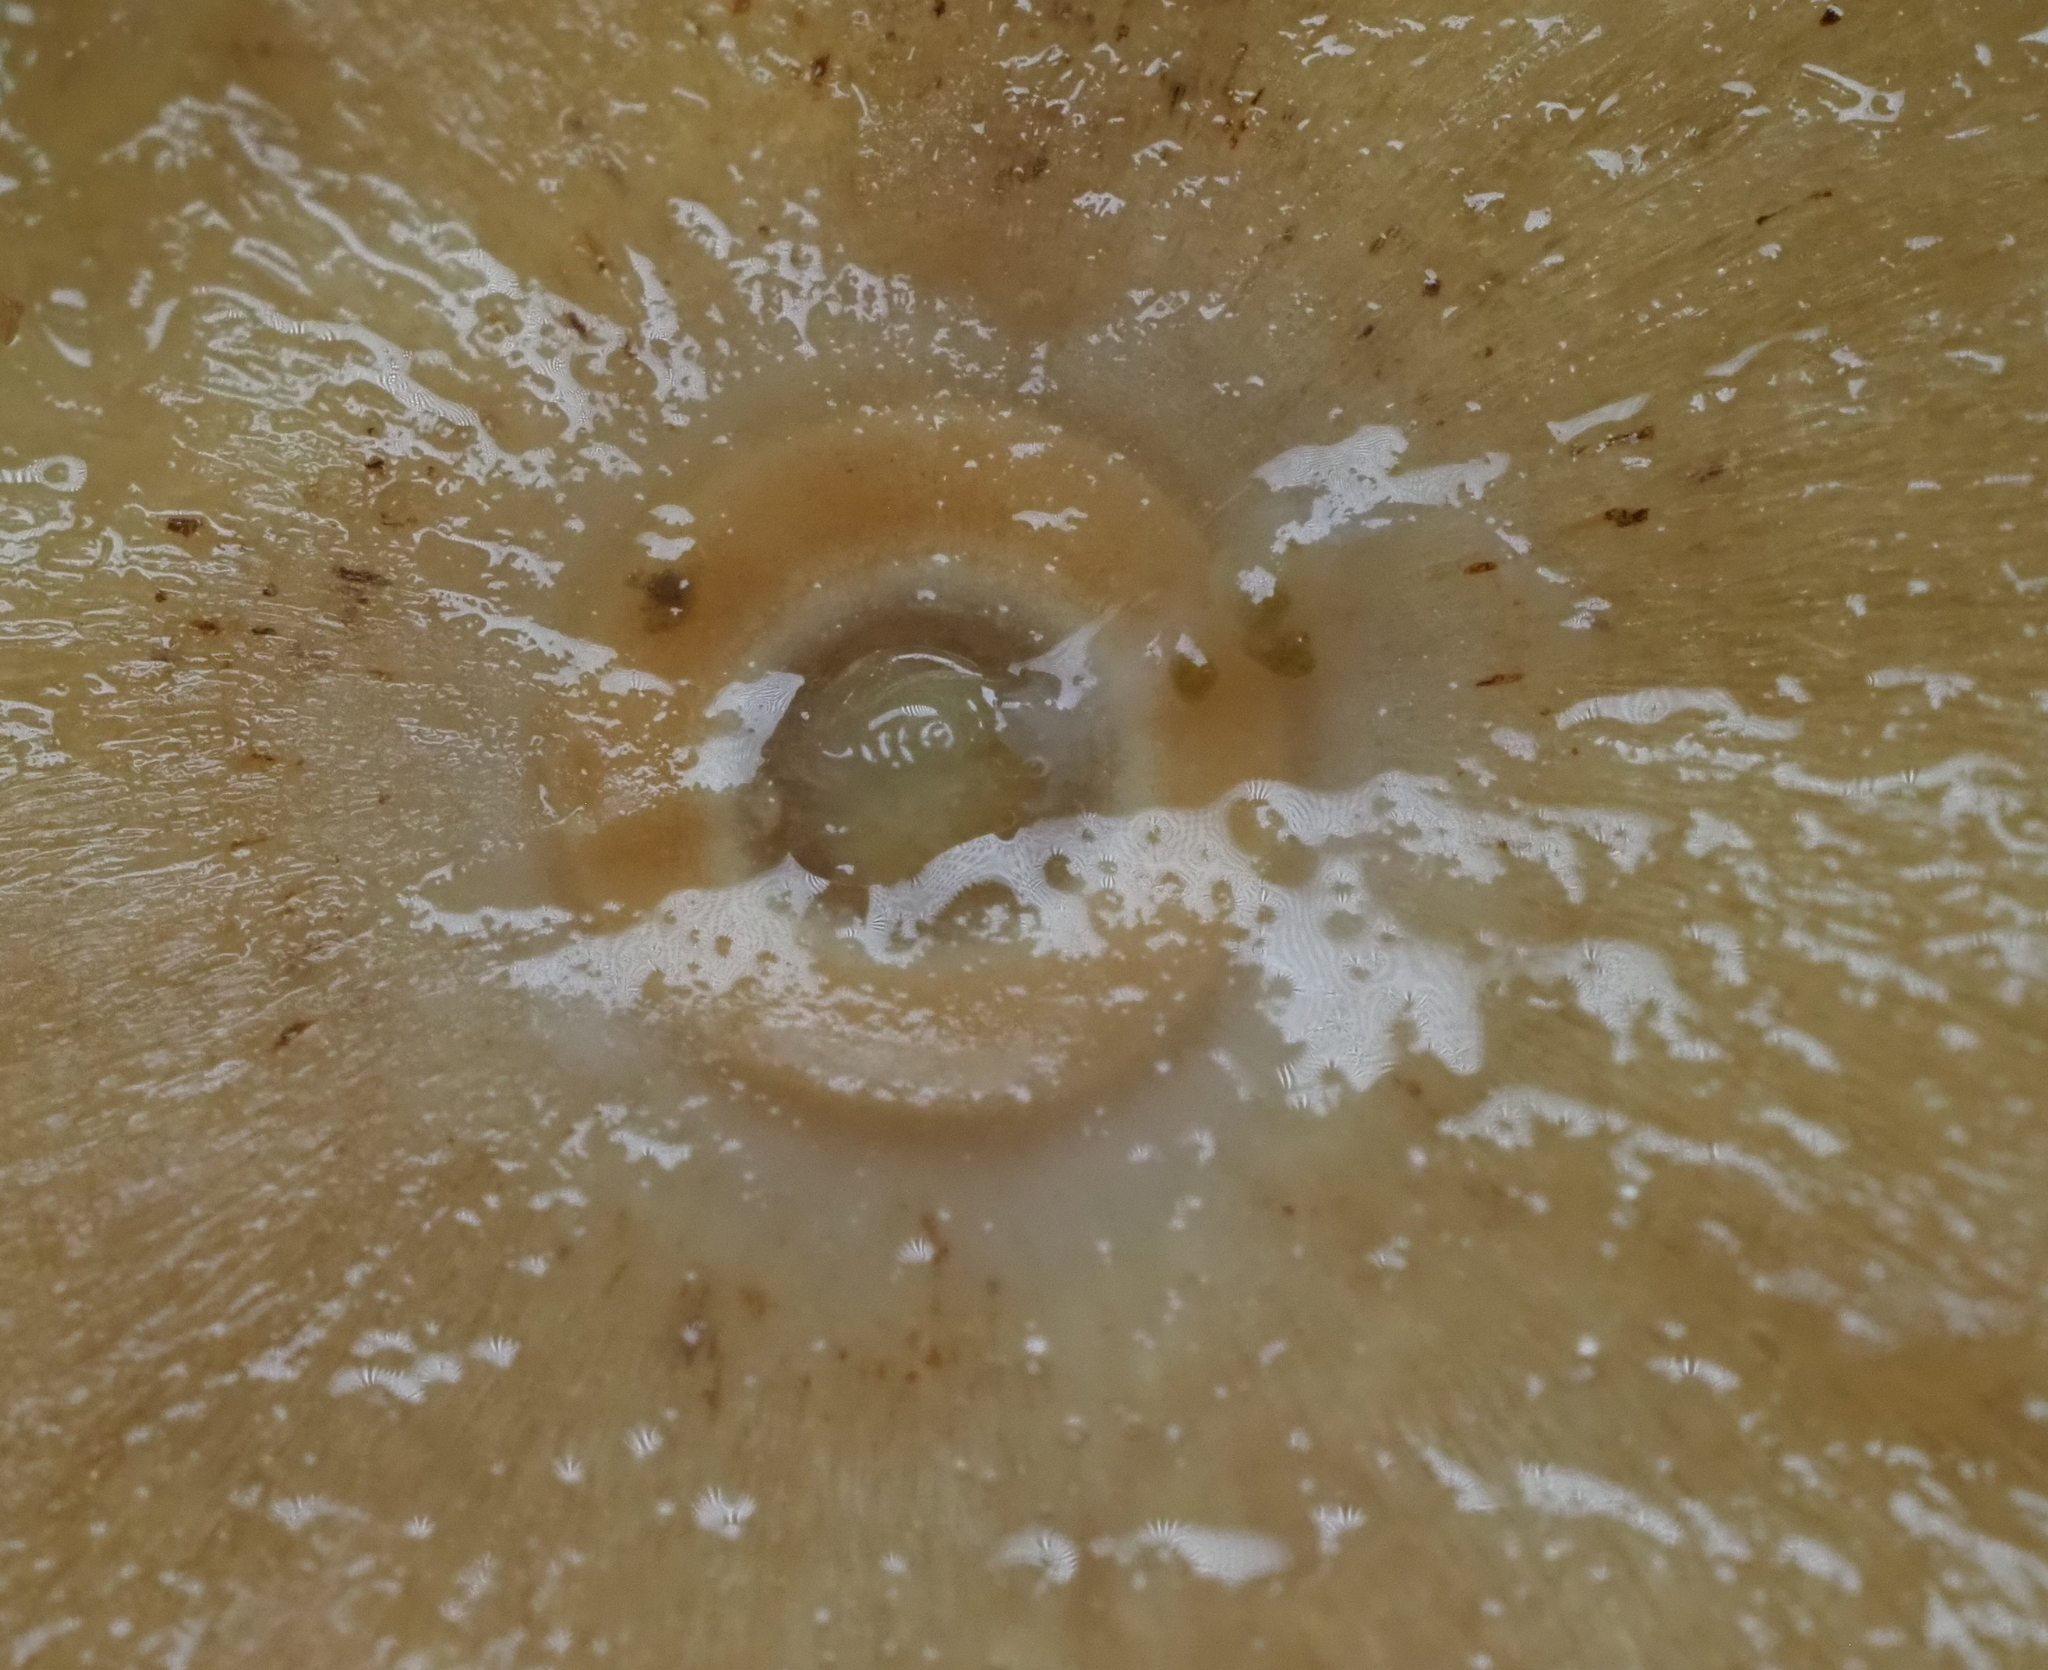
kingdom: Animalia
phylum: Arthropoda
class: Insecta
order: Hymenoptera
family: Cynipidae
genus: Disholcaspis
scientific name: Disholcaspis
